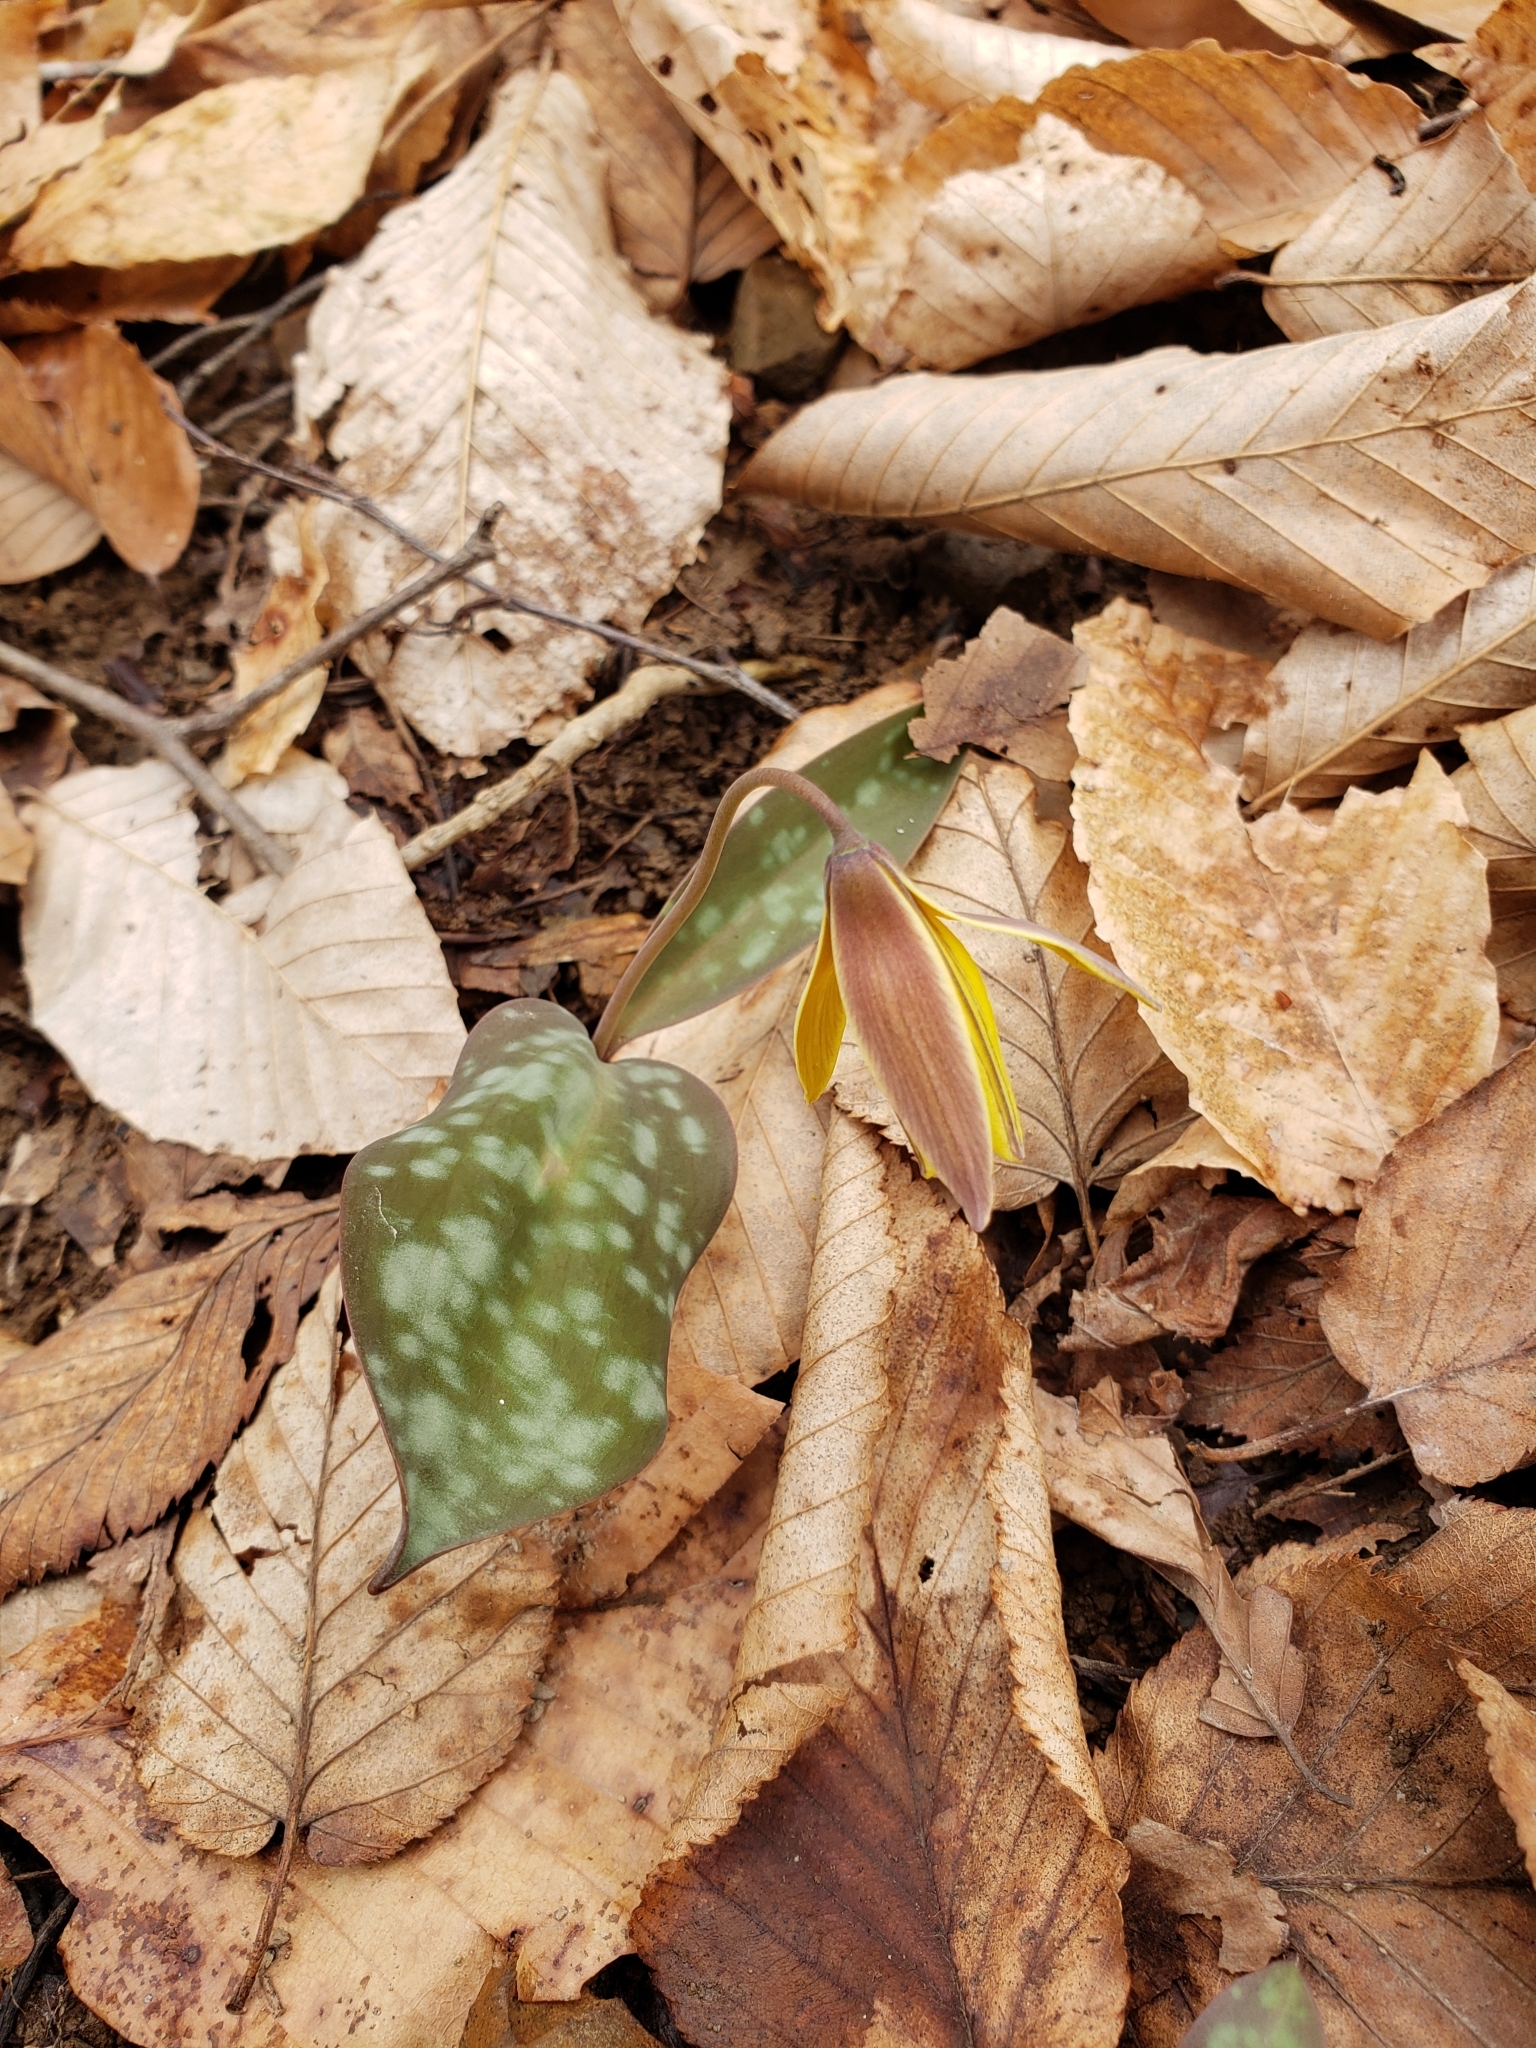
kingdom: Plantae
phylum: Tracheophyta
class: Liliopsida
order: Liliales
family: Liliaceae
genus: Erythronium
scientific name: Erythronium rostratum
